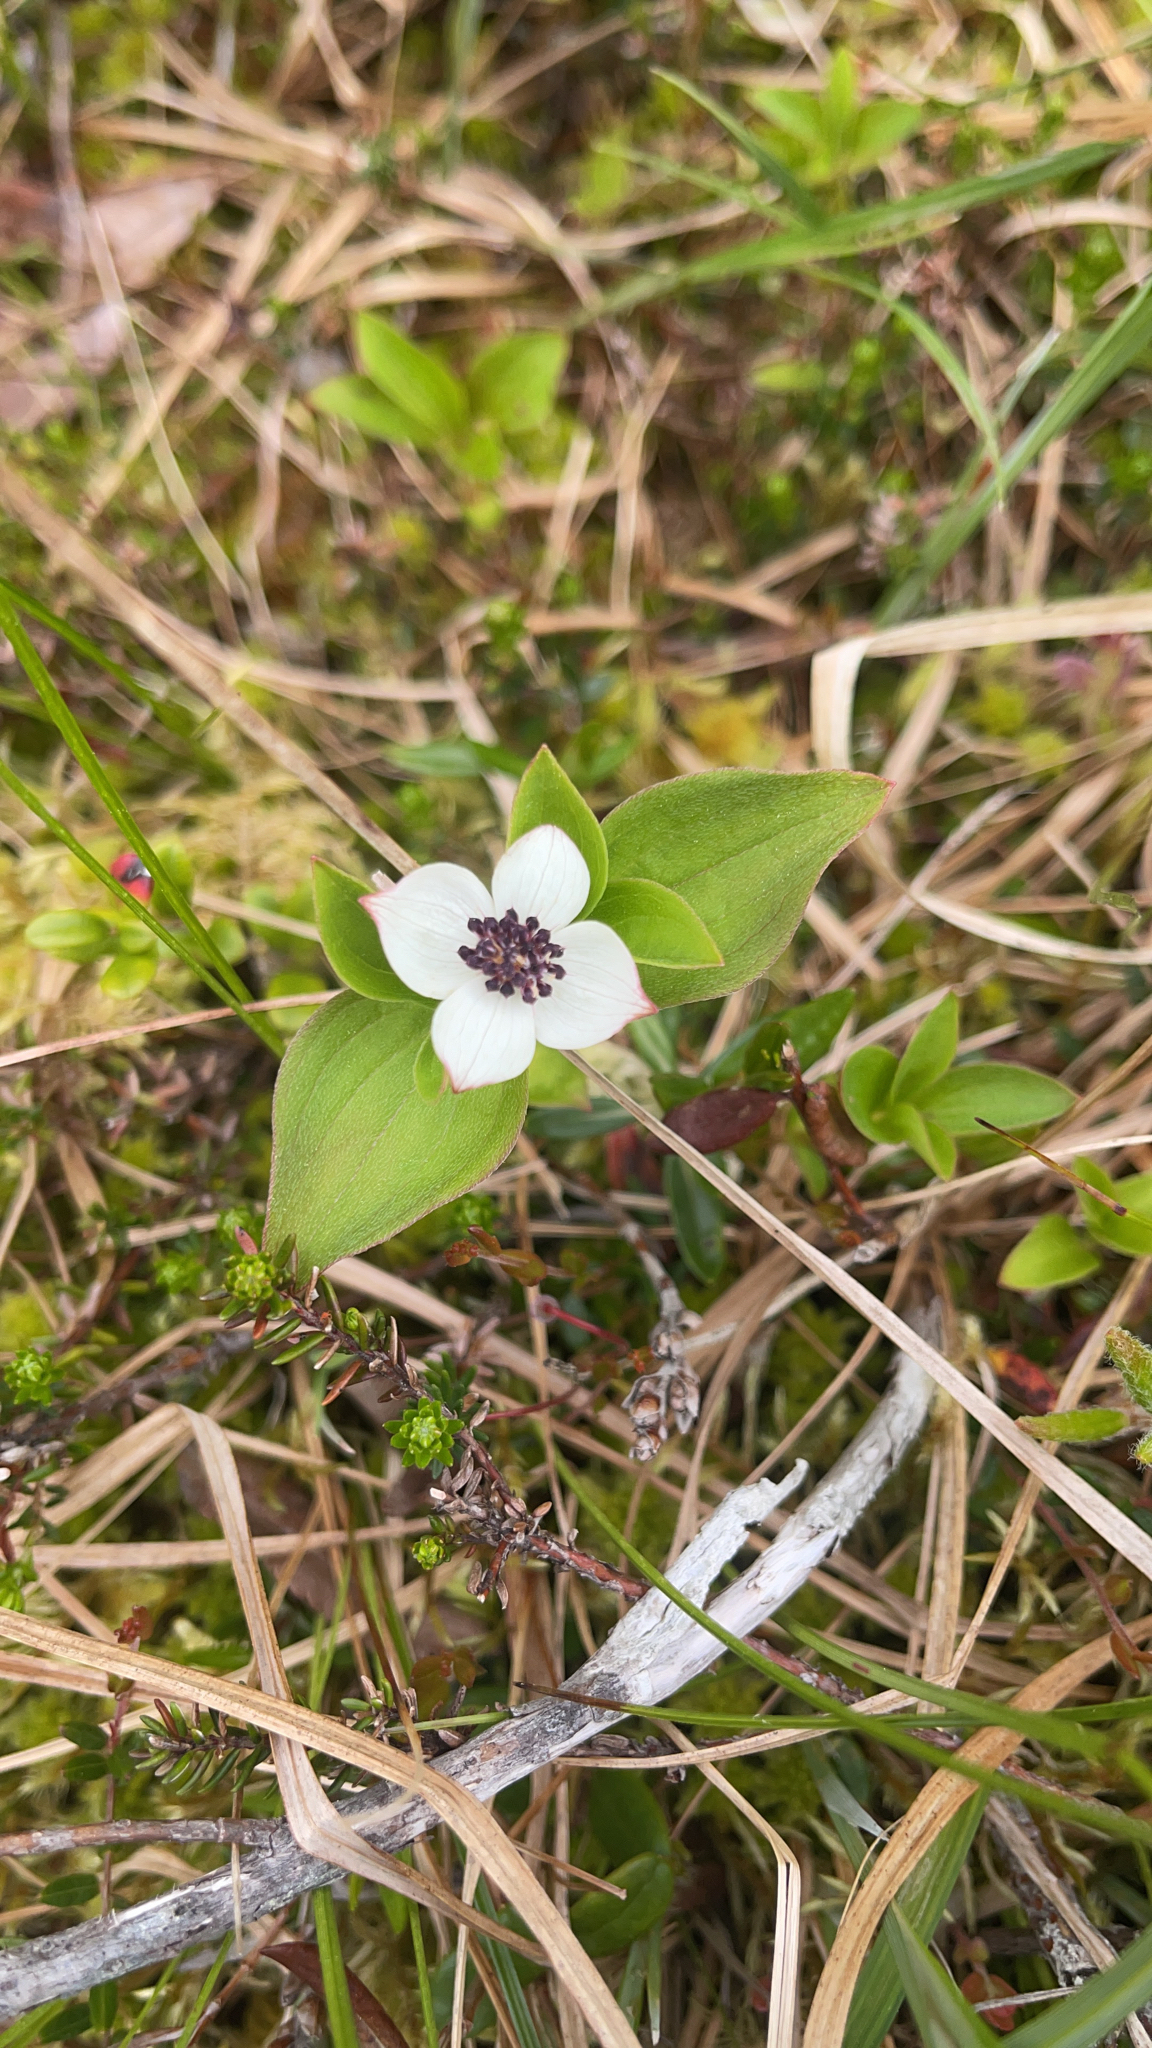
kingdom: Plantae
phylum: Tracheophyta
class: Magnoliopsida
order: Cornales
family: Cornaceae
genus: Cornus
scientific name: Cornus suecica
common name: Dwarf cornel
